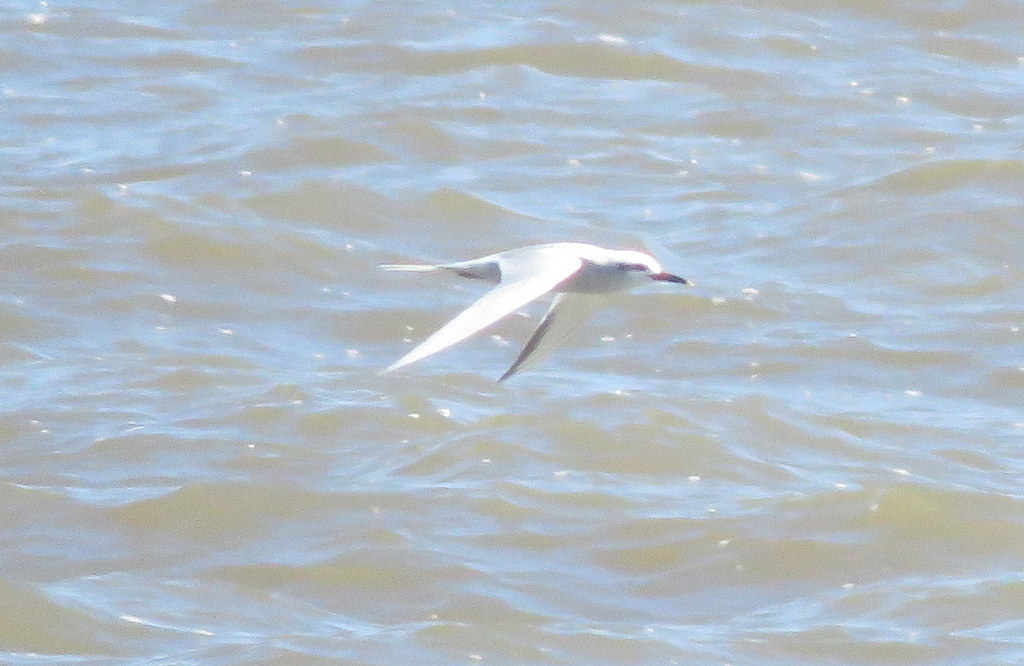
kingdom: Animalia
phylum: Chordata
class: Aves
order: Charadriiformes
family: Laridae
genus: Sterna
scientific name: Sterna trudeaui
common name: Snowy-crowned tern
